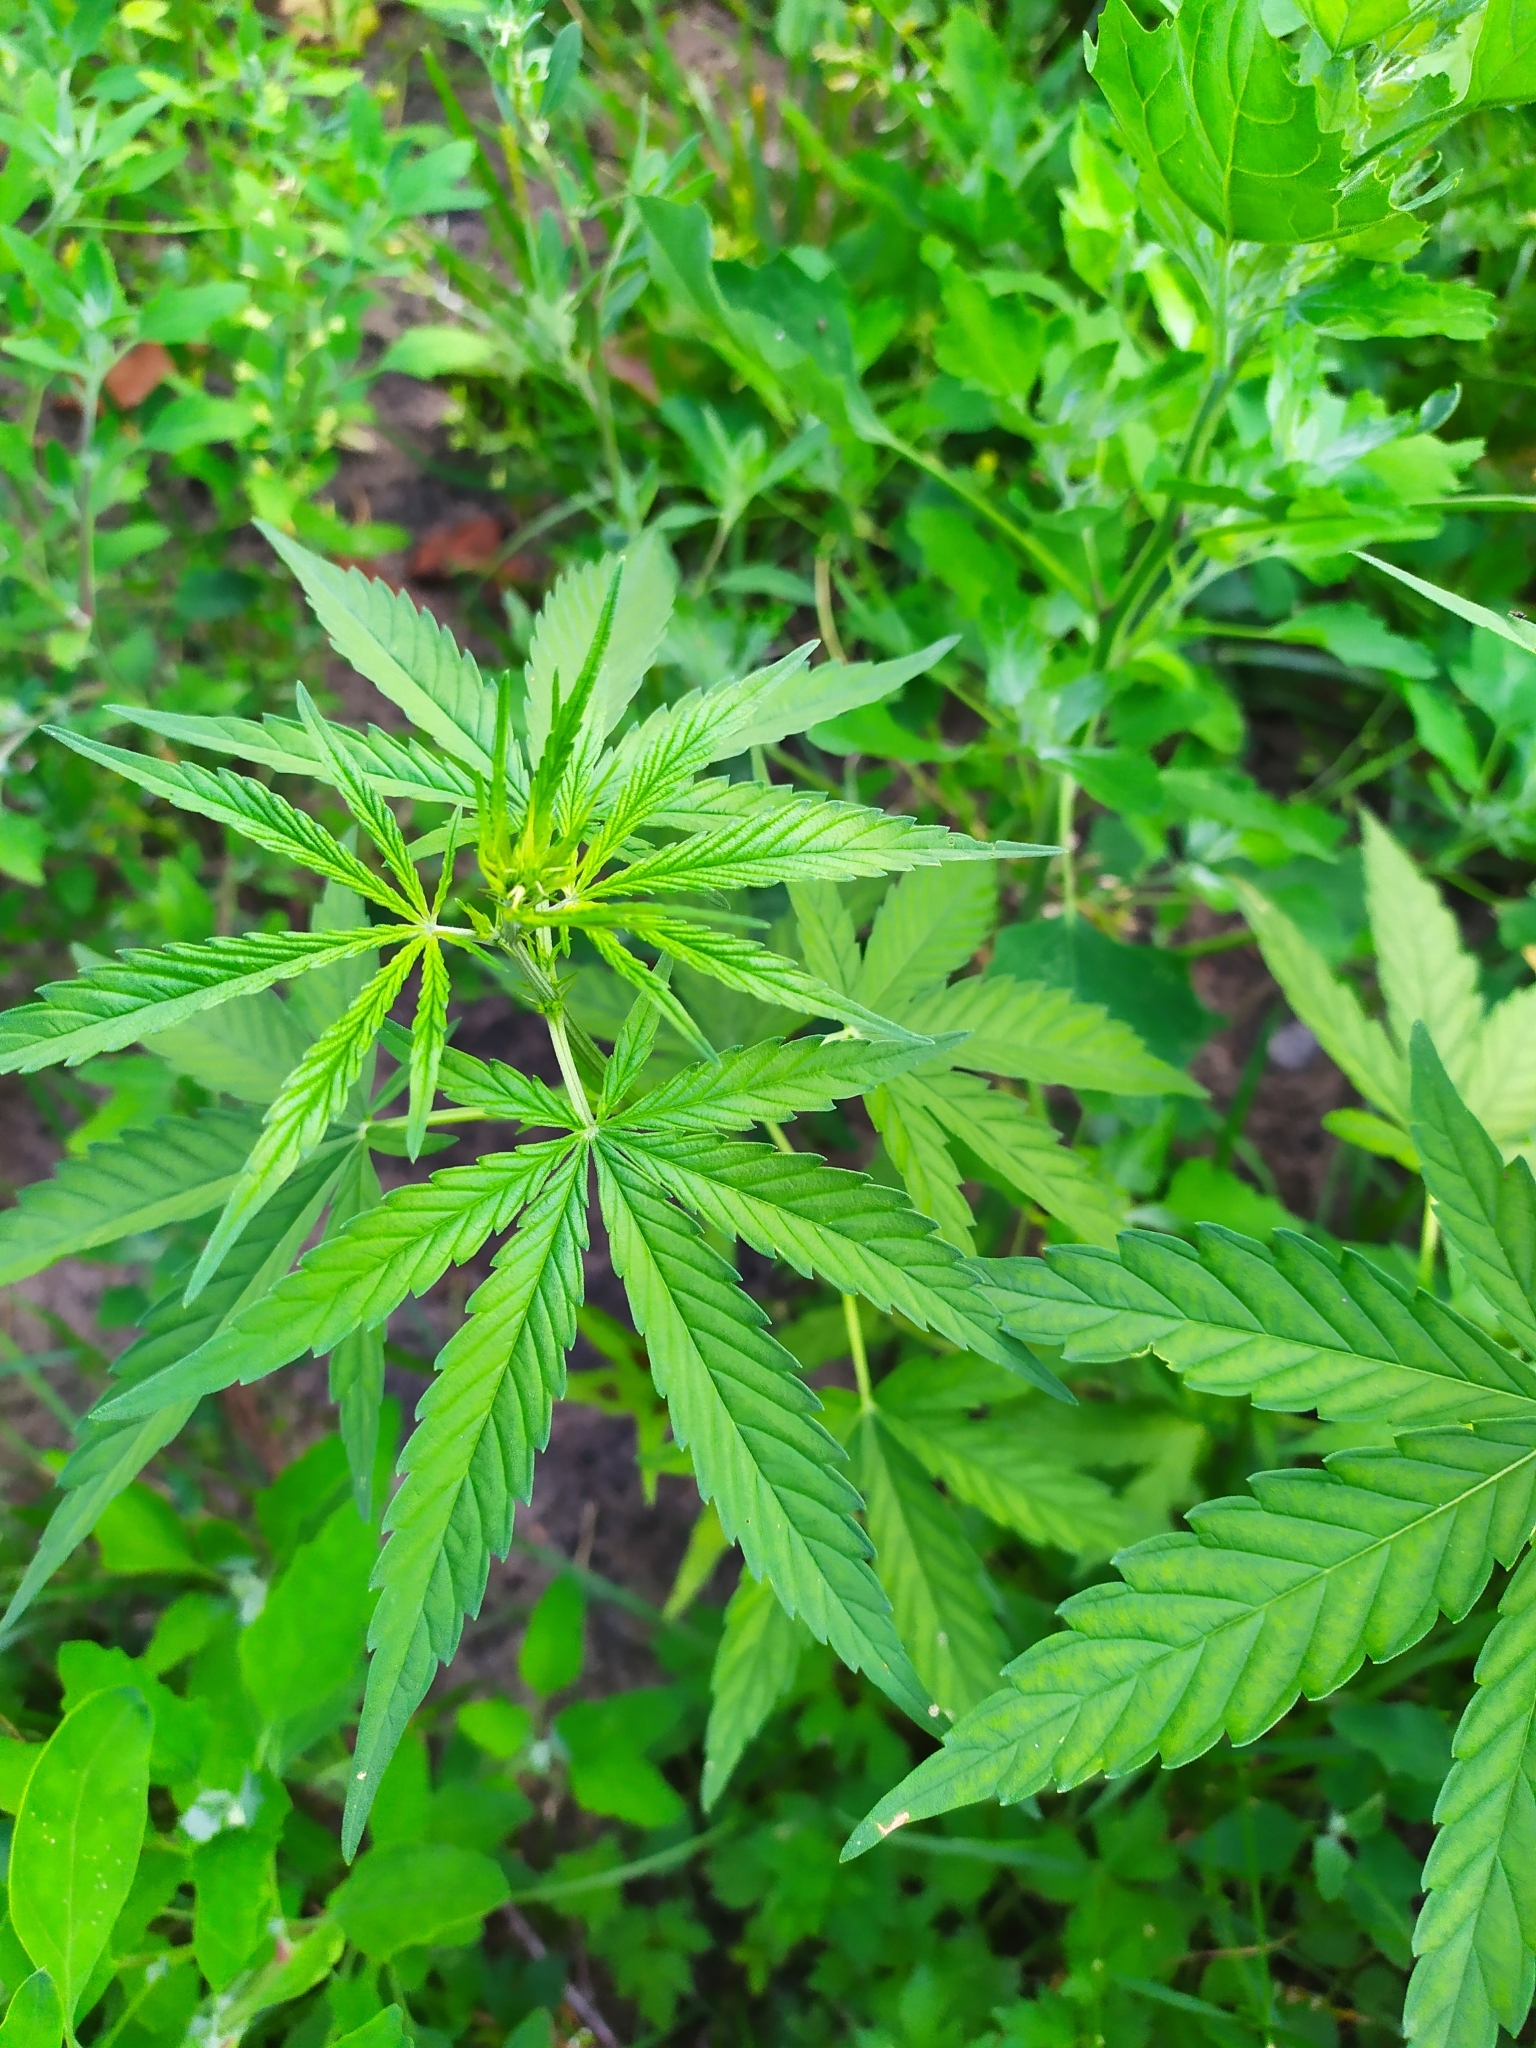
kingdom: Plantae
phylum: Tracheophyta
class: Magnoliopsida
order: Rosales
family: Cannabaceae
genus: Cannabis
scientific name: Cannabis sativa
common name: Hemp
